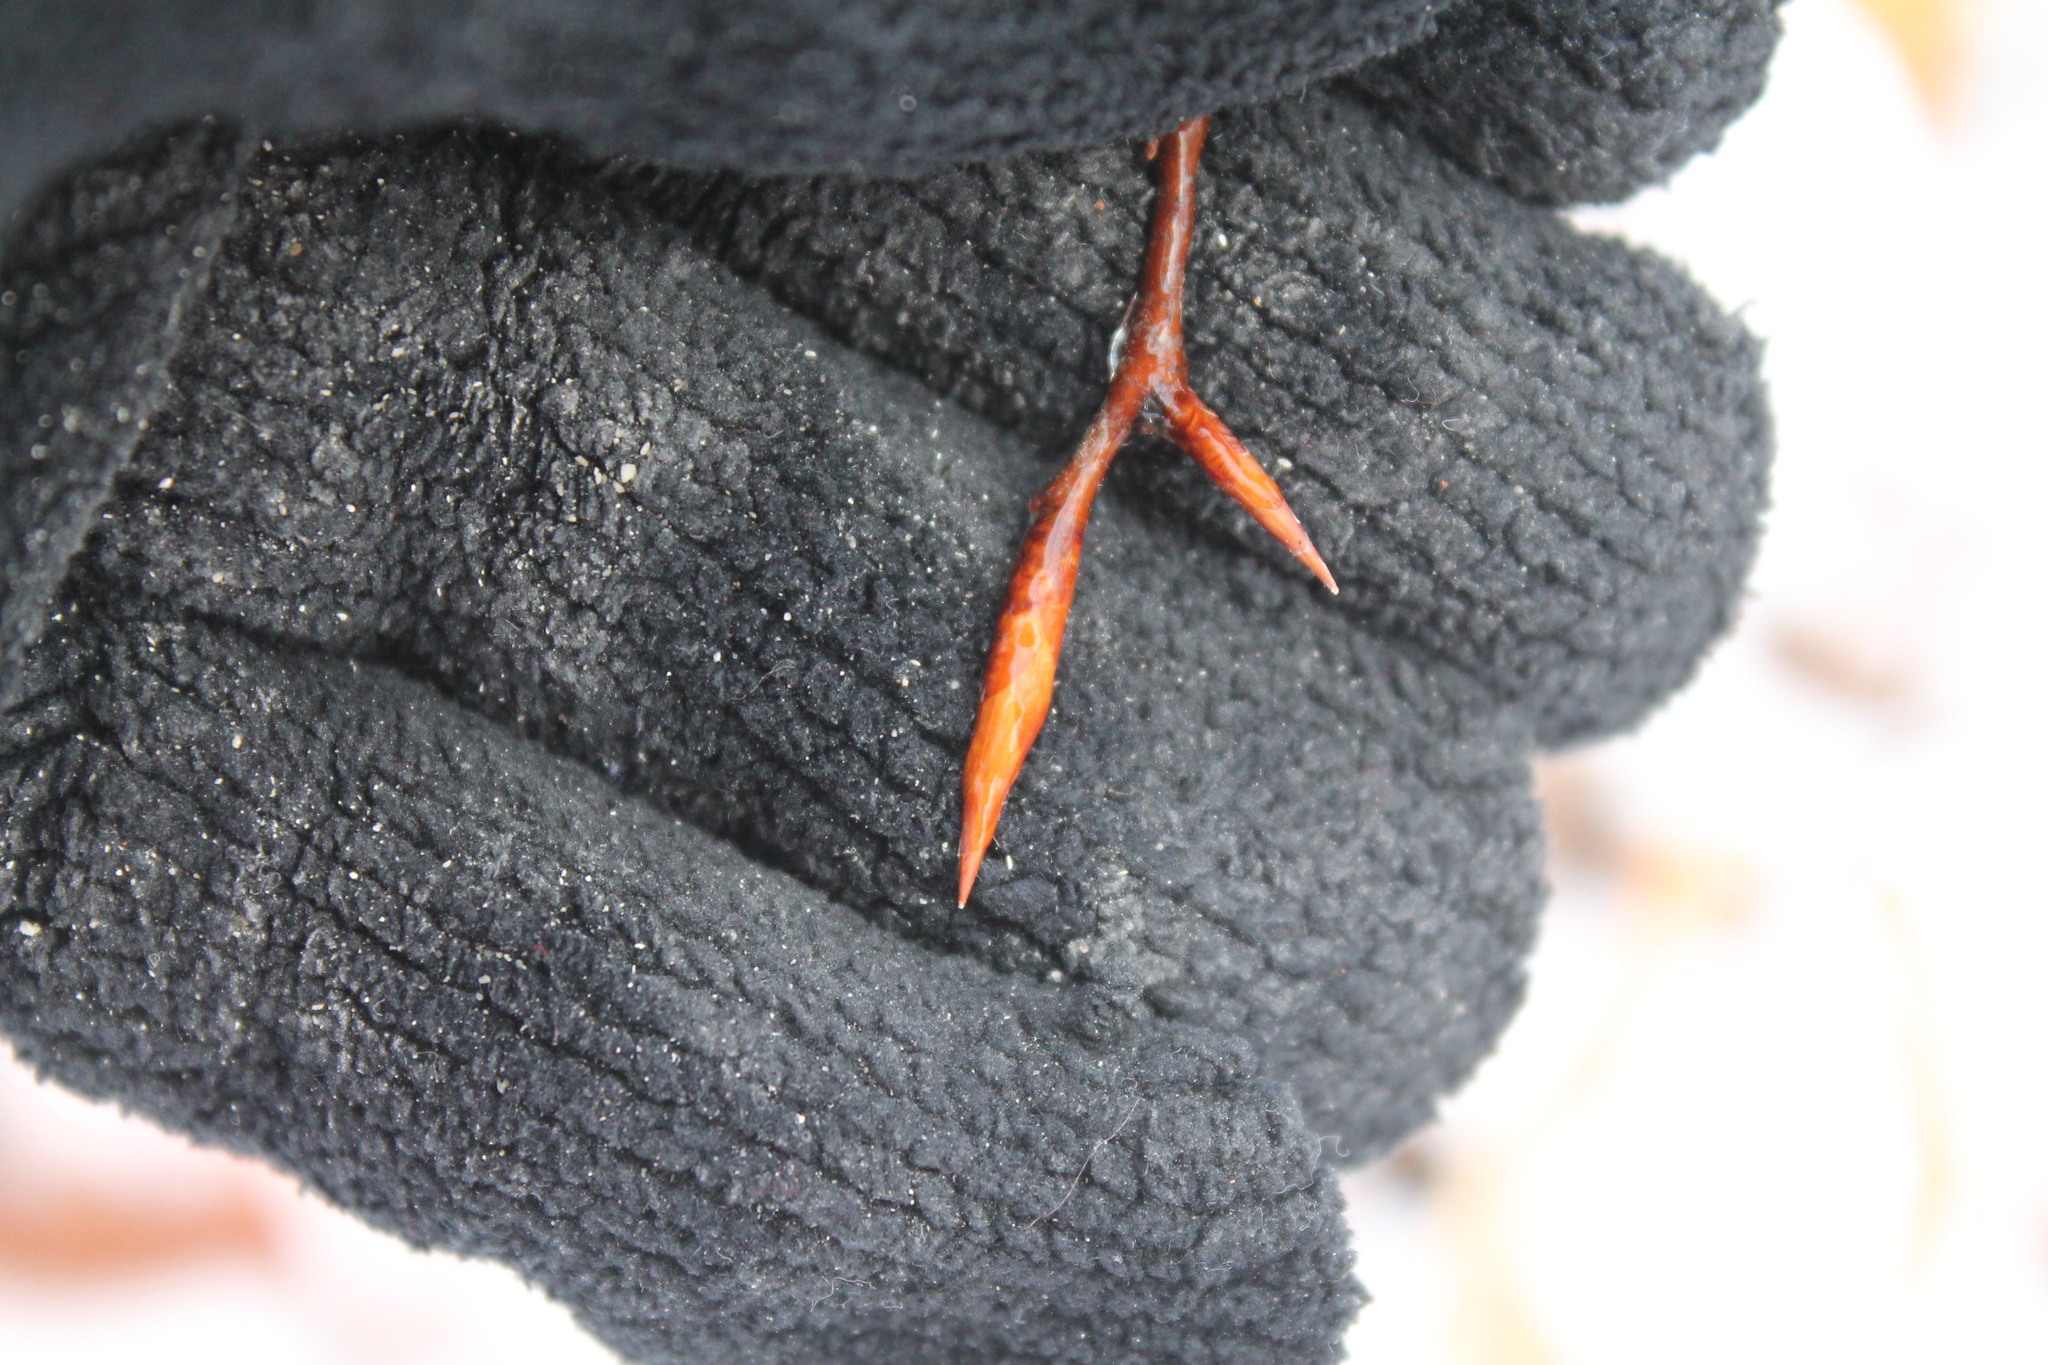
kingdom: Plantae
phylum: Tracheophyta
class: Magnoliopsida
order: Fagales
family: Fagaceae
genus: Fagus
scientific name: Fagus grandifolia
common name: American beech
